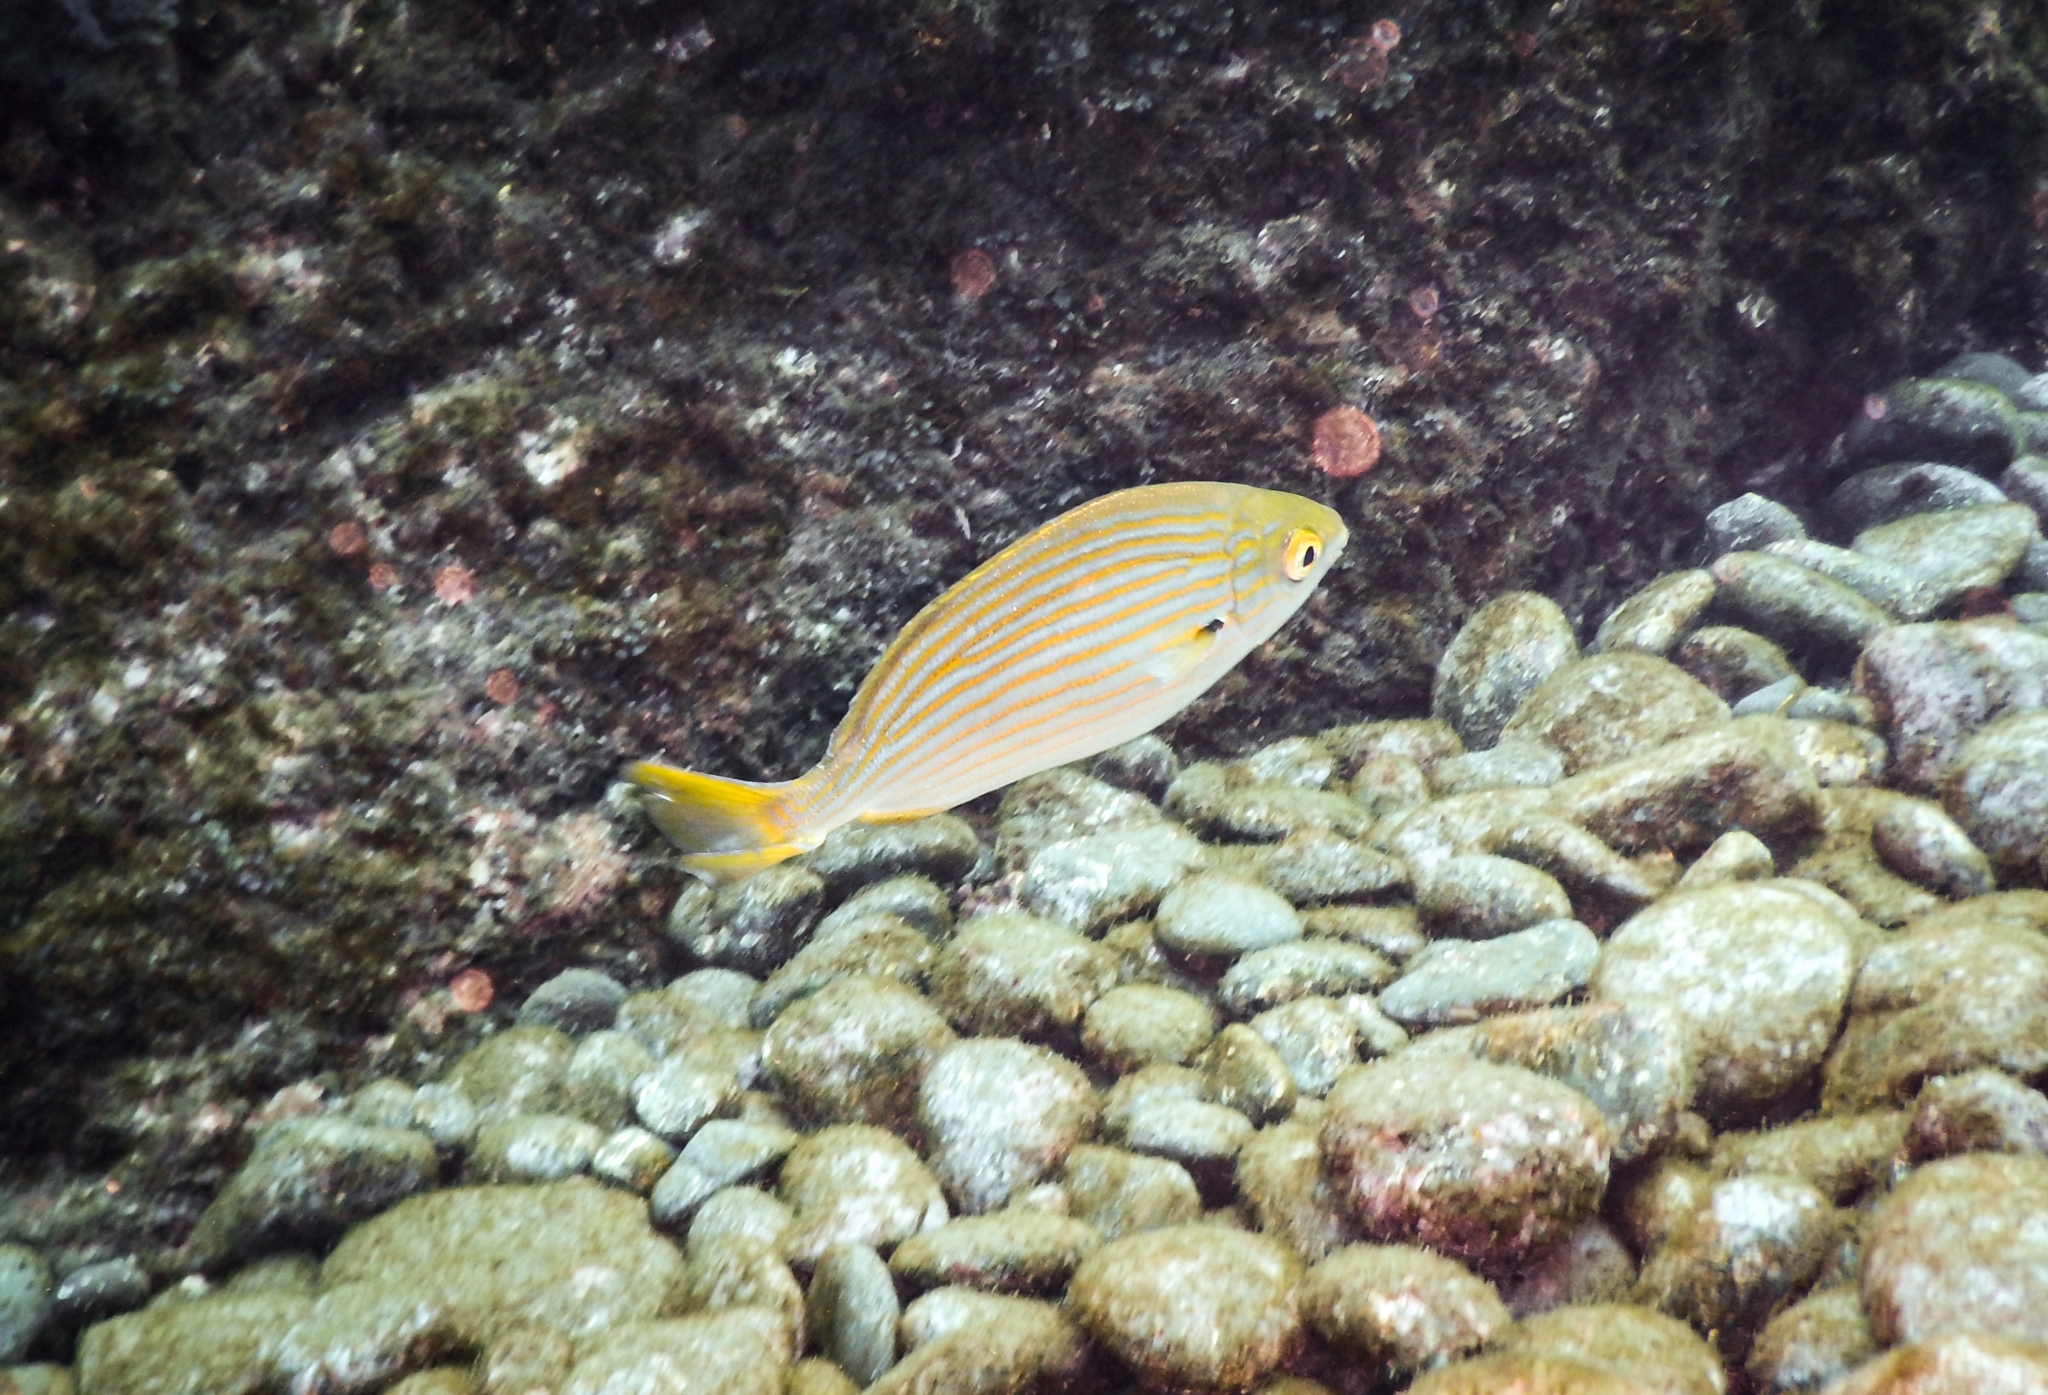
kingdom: Animalia
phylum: Chordata
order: Perciformes
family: Sparidae
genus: Sarpa
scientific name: Sarpa salpa
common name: Salema
